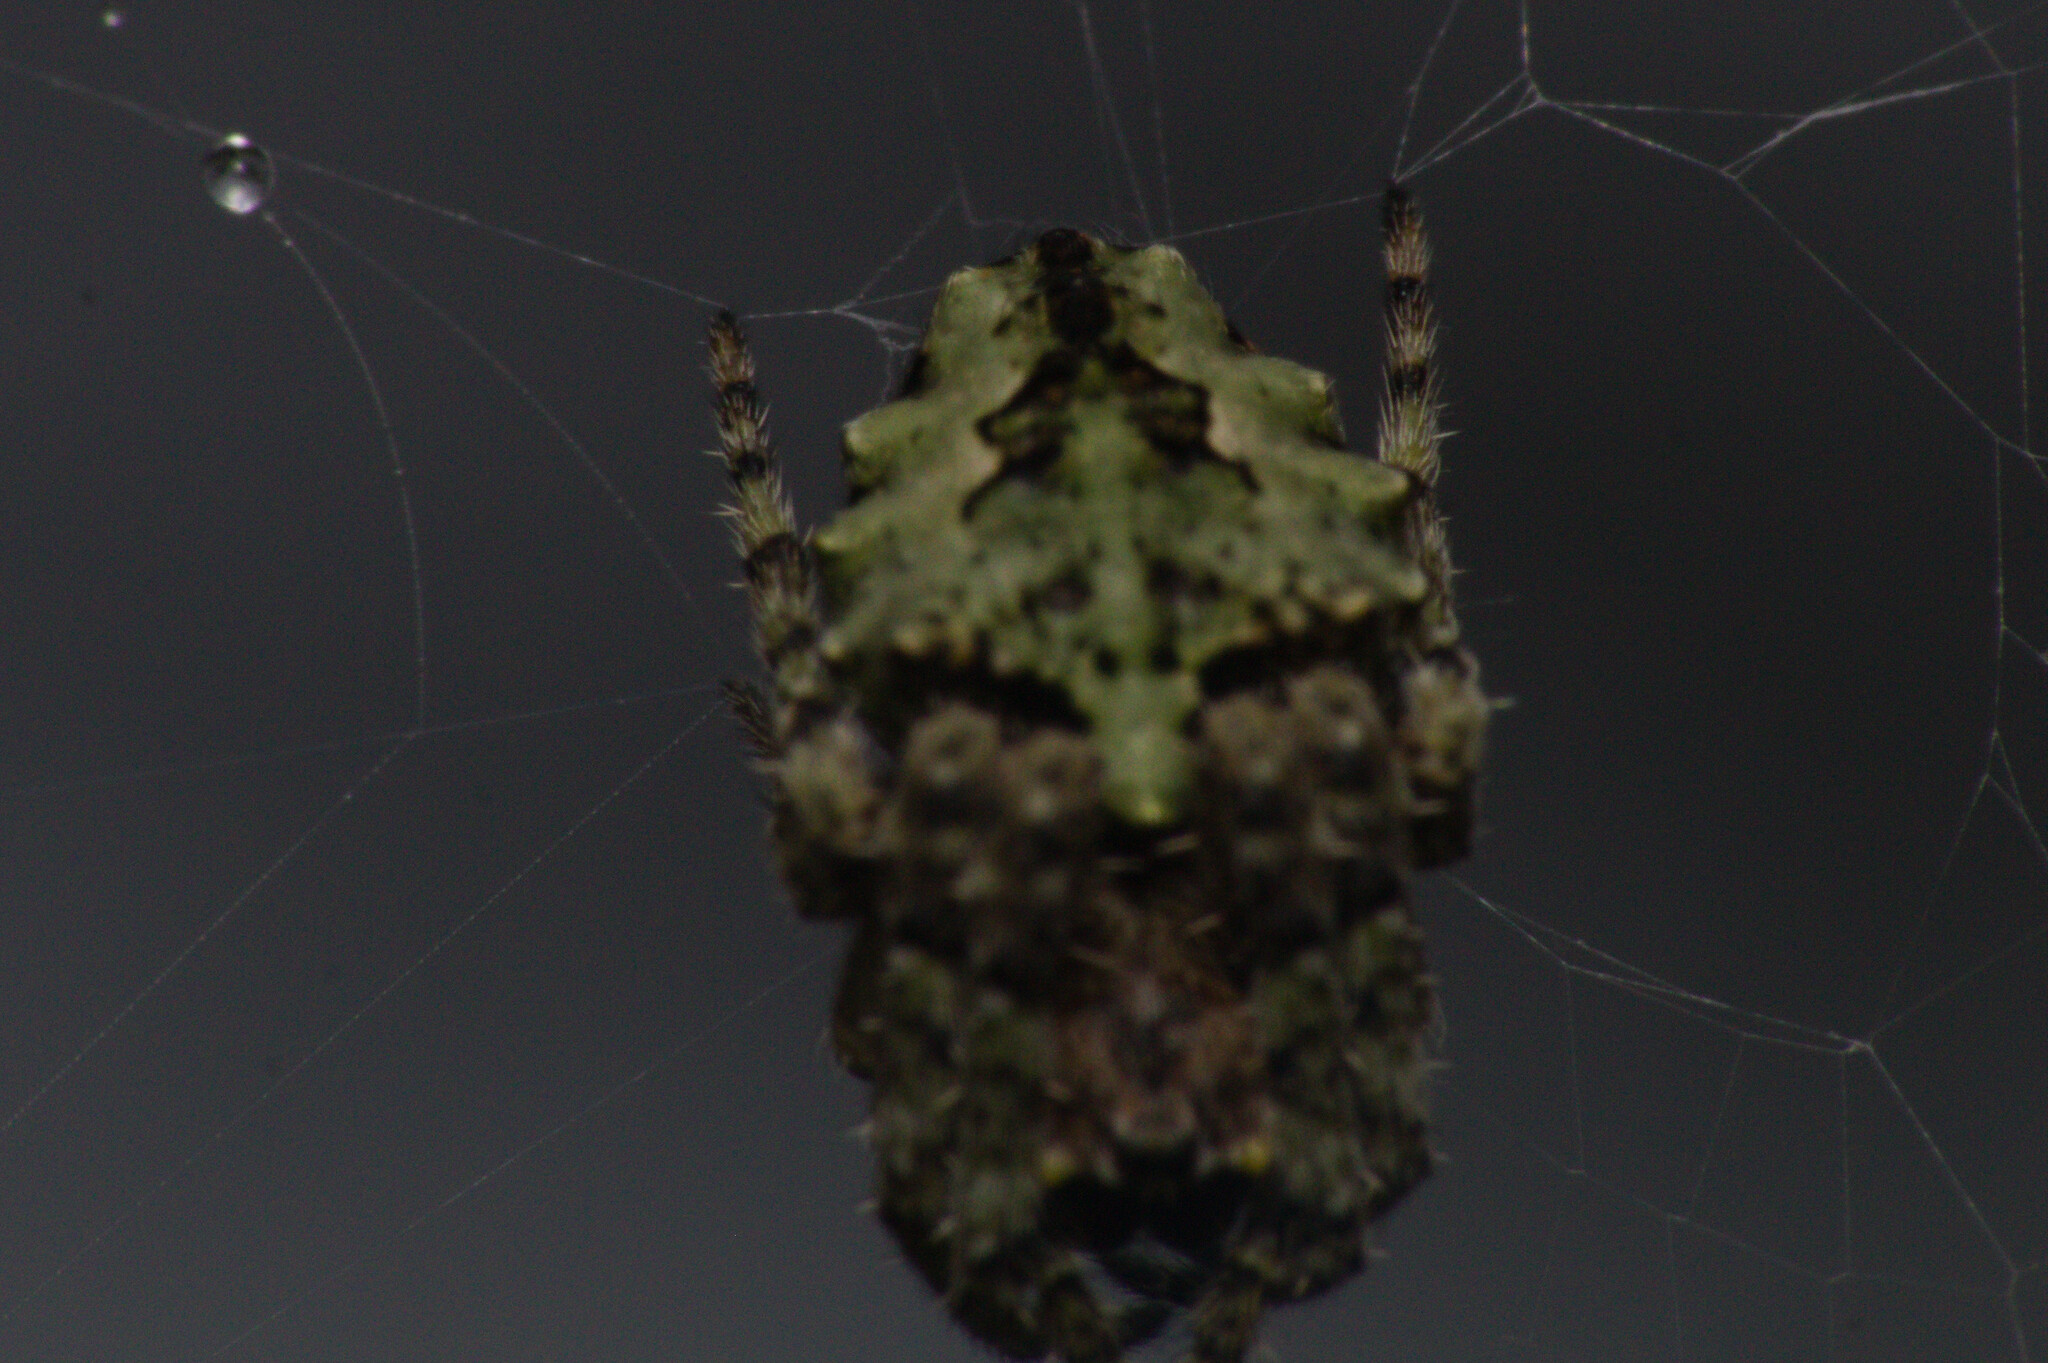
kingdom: Animalia
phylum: Arthropoda
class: Arachnida
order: Araneae
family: Araneidae
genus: Parawixia
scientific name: Parawixia audax
